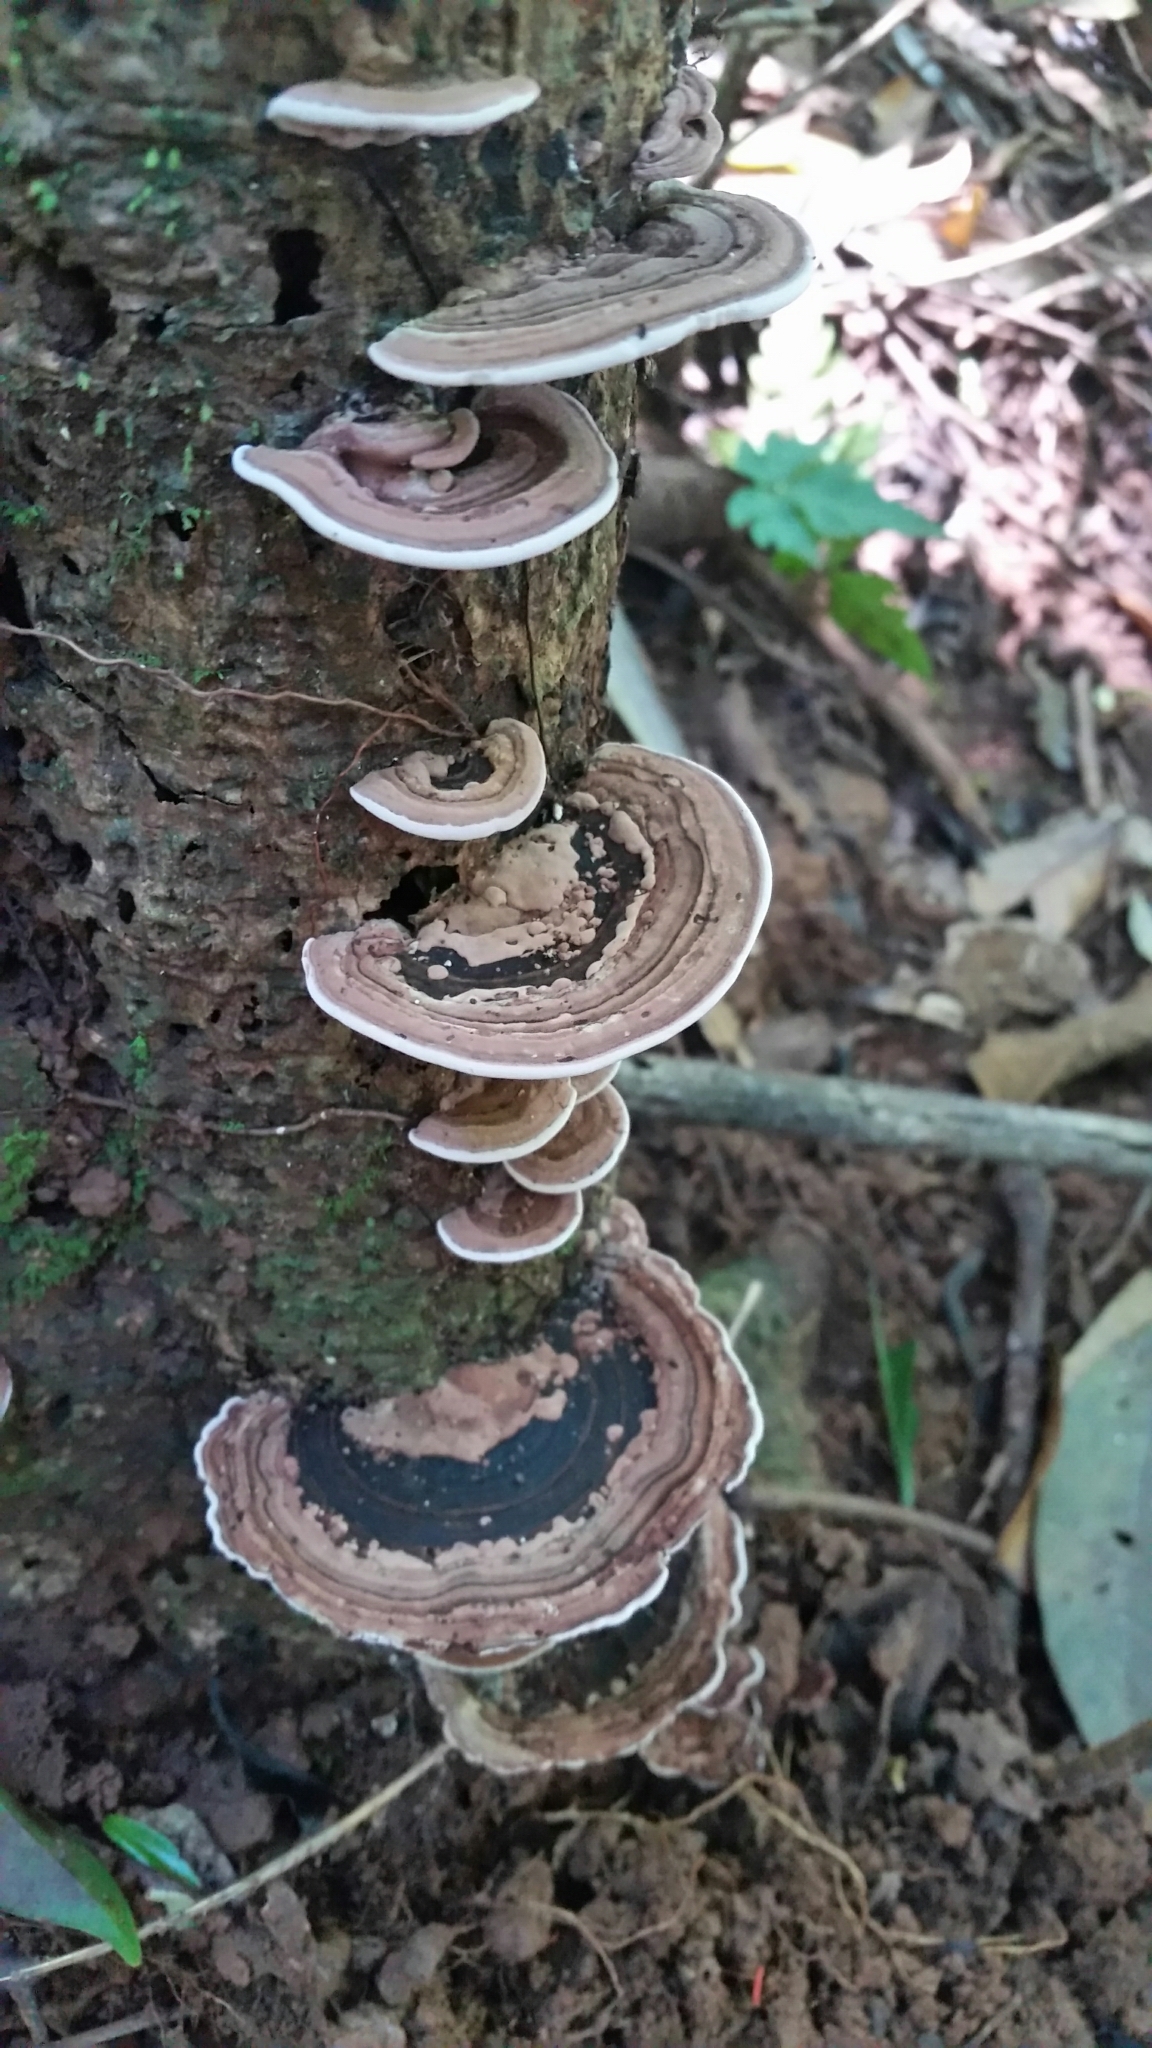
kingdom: Fungi
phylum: Basidiomycota
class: Agaricomycetes
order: Polyporales
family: Steccherinaceae
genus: Nigroporus
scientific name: Nigroporus vinosus
